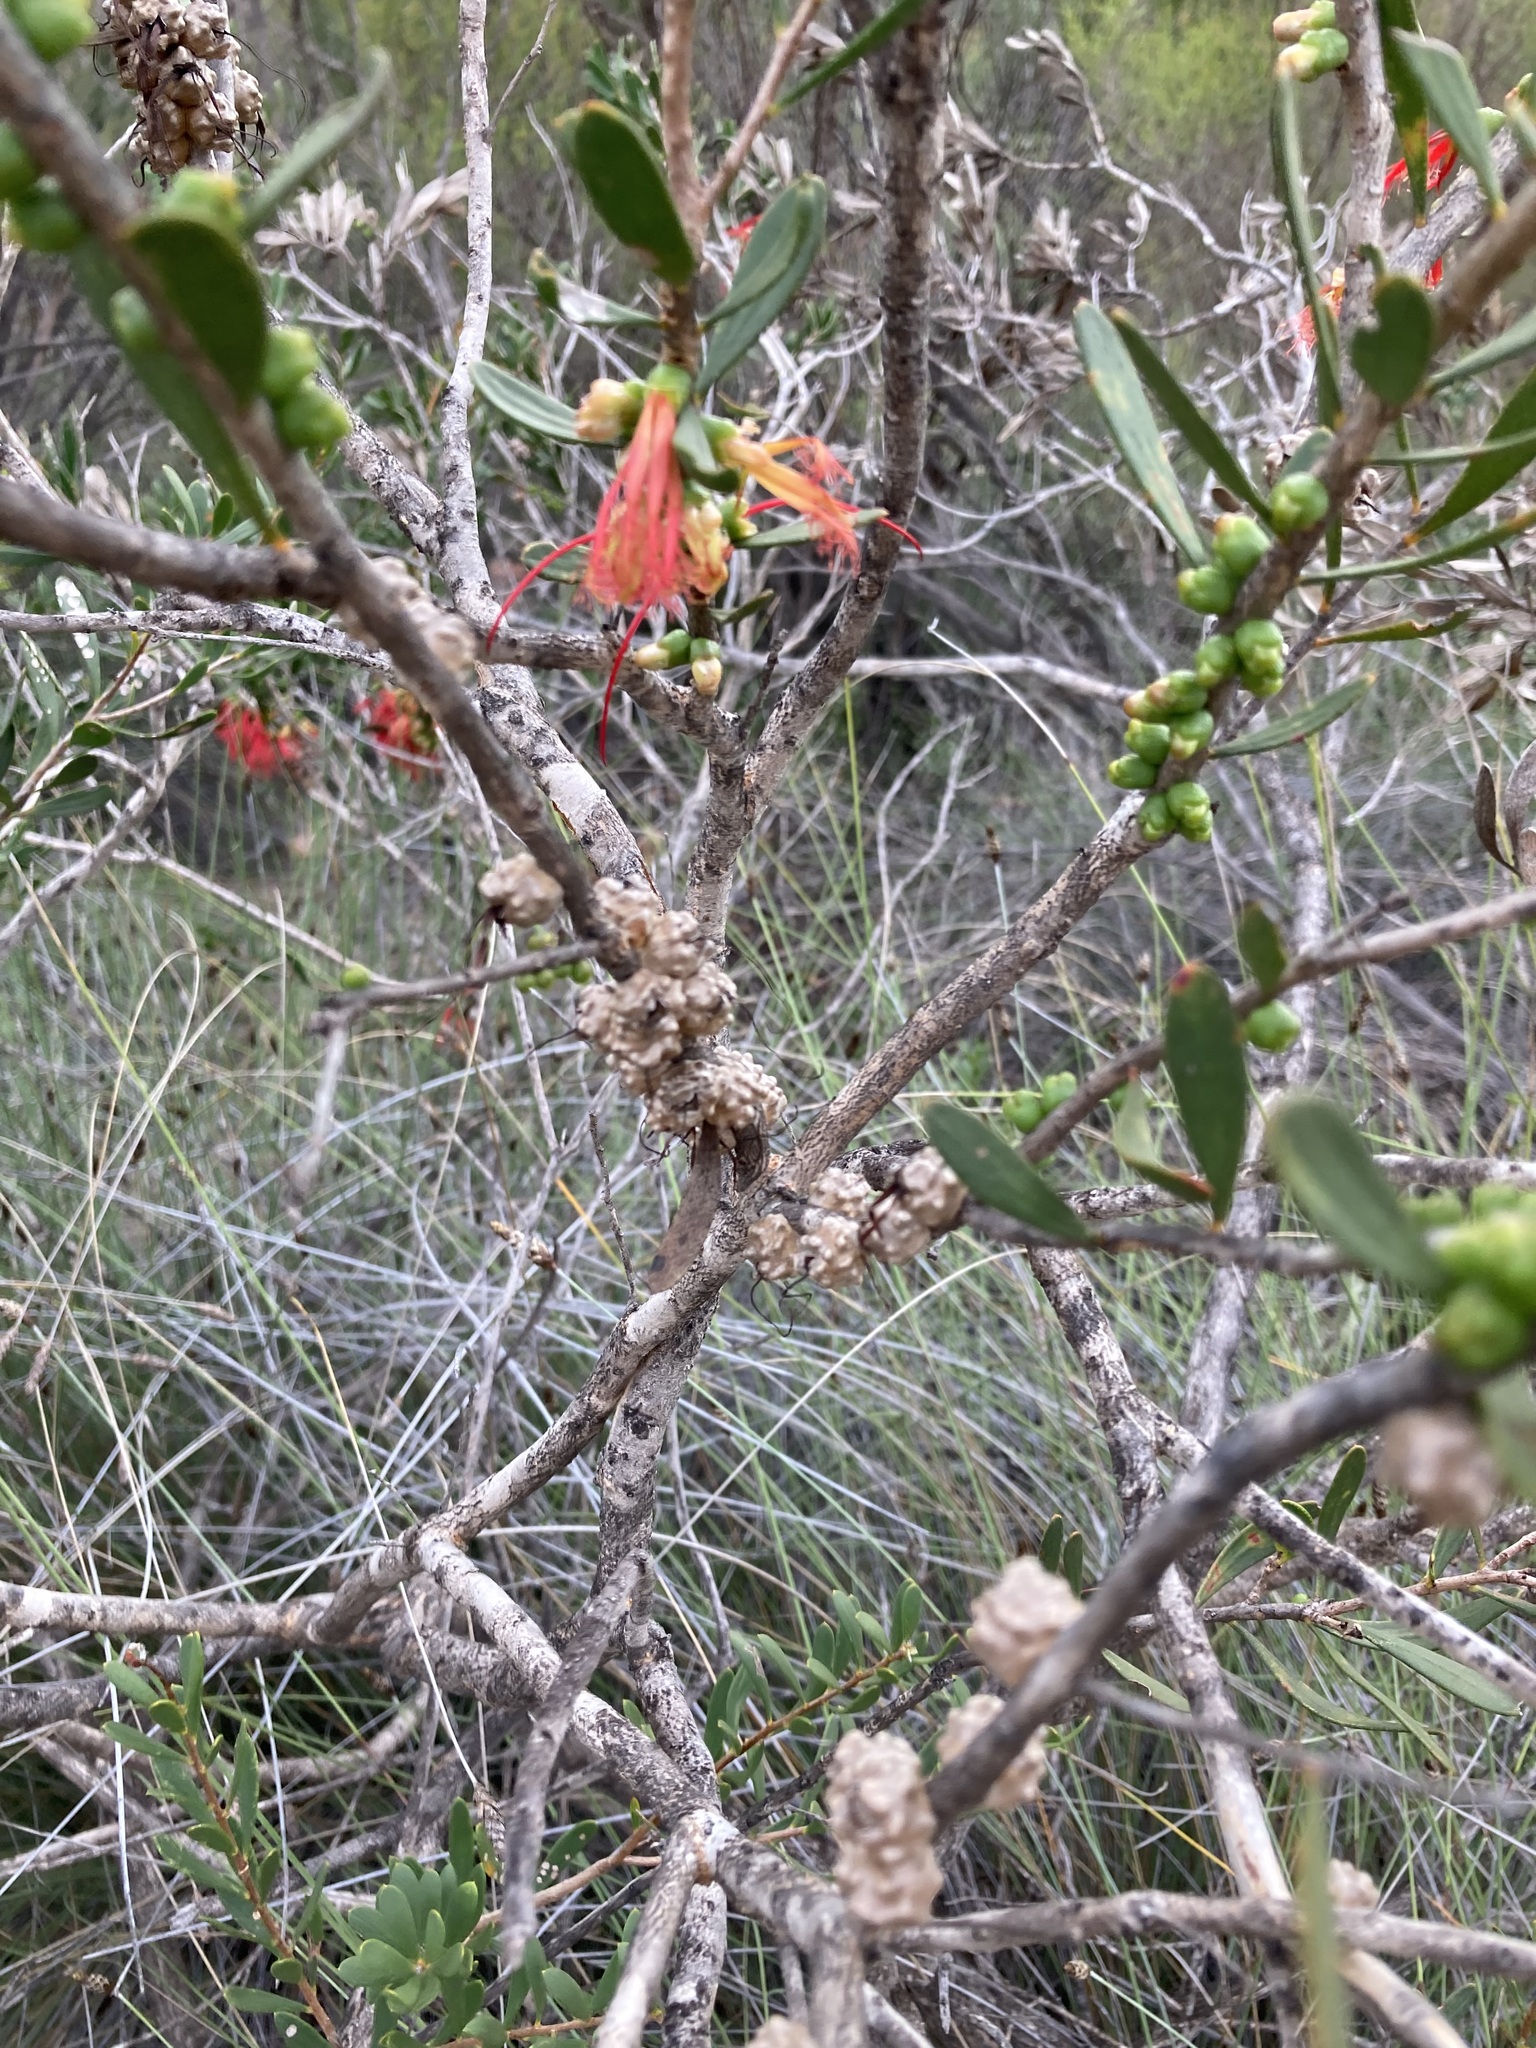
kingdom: Plantae
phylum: Tracheophyta
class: Magnoliopsida
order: Myrtales
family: Myrtaceae
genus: Melaleuca
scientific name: Melaleuca quadrifida
